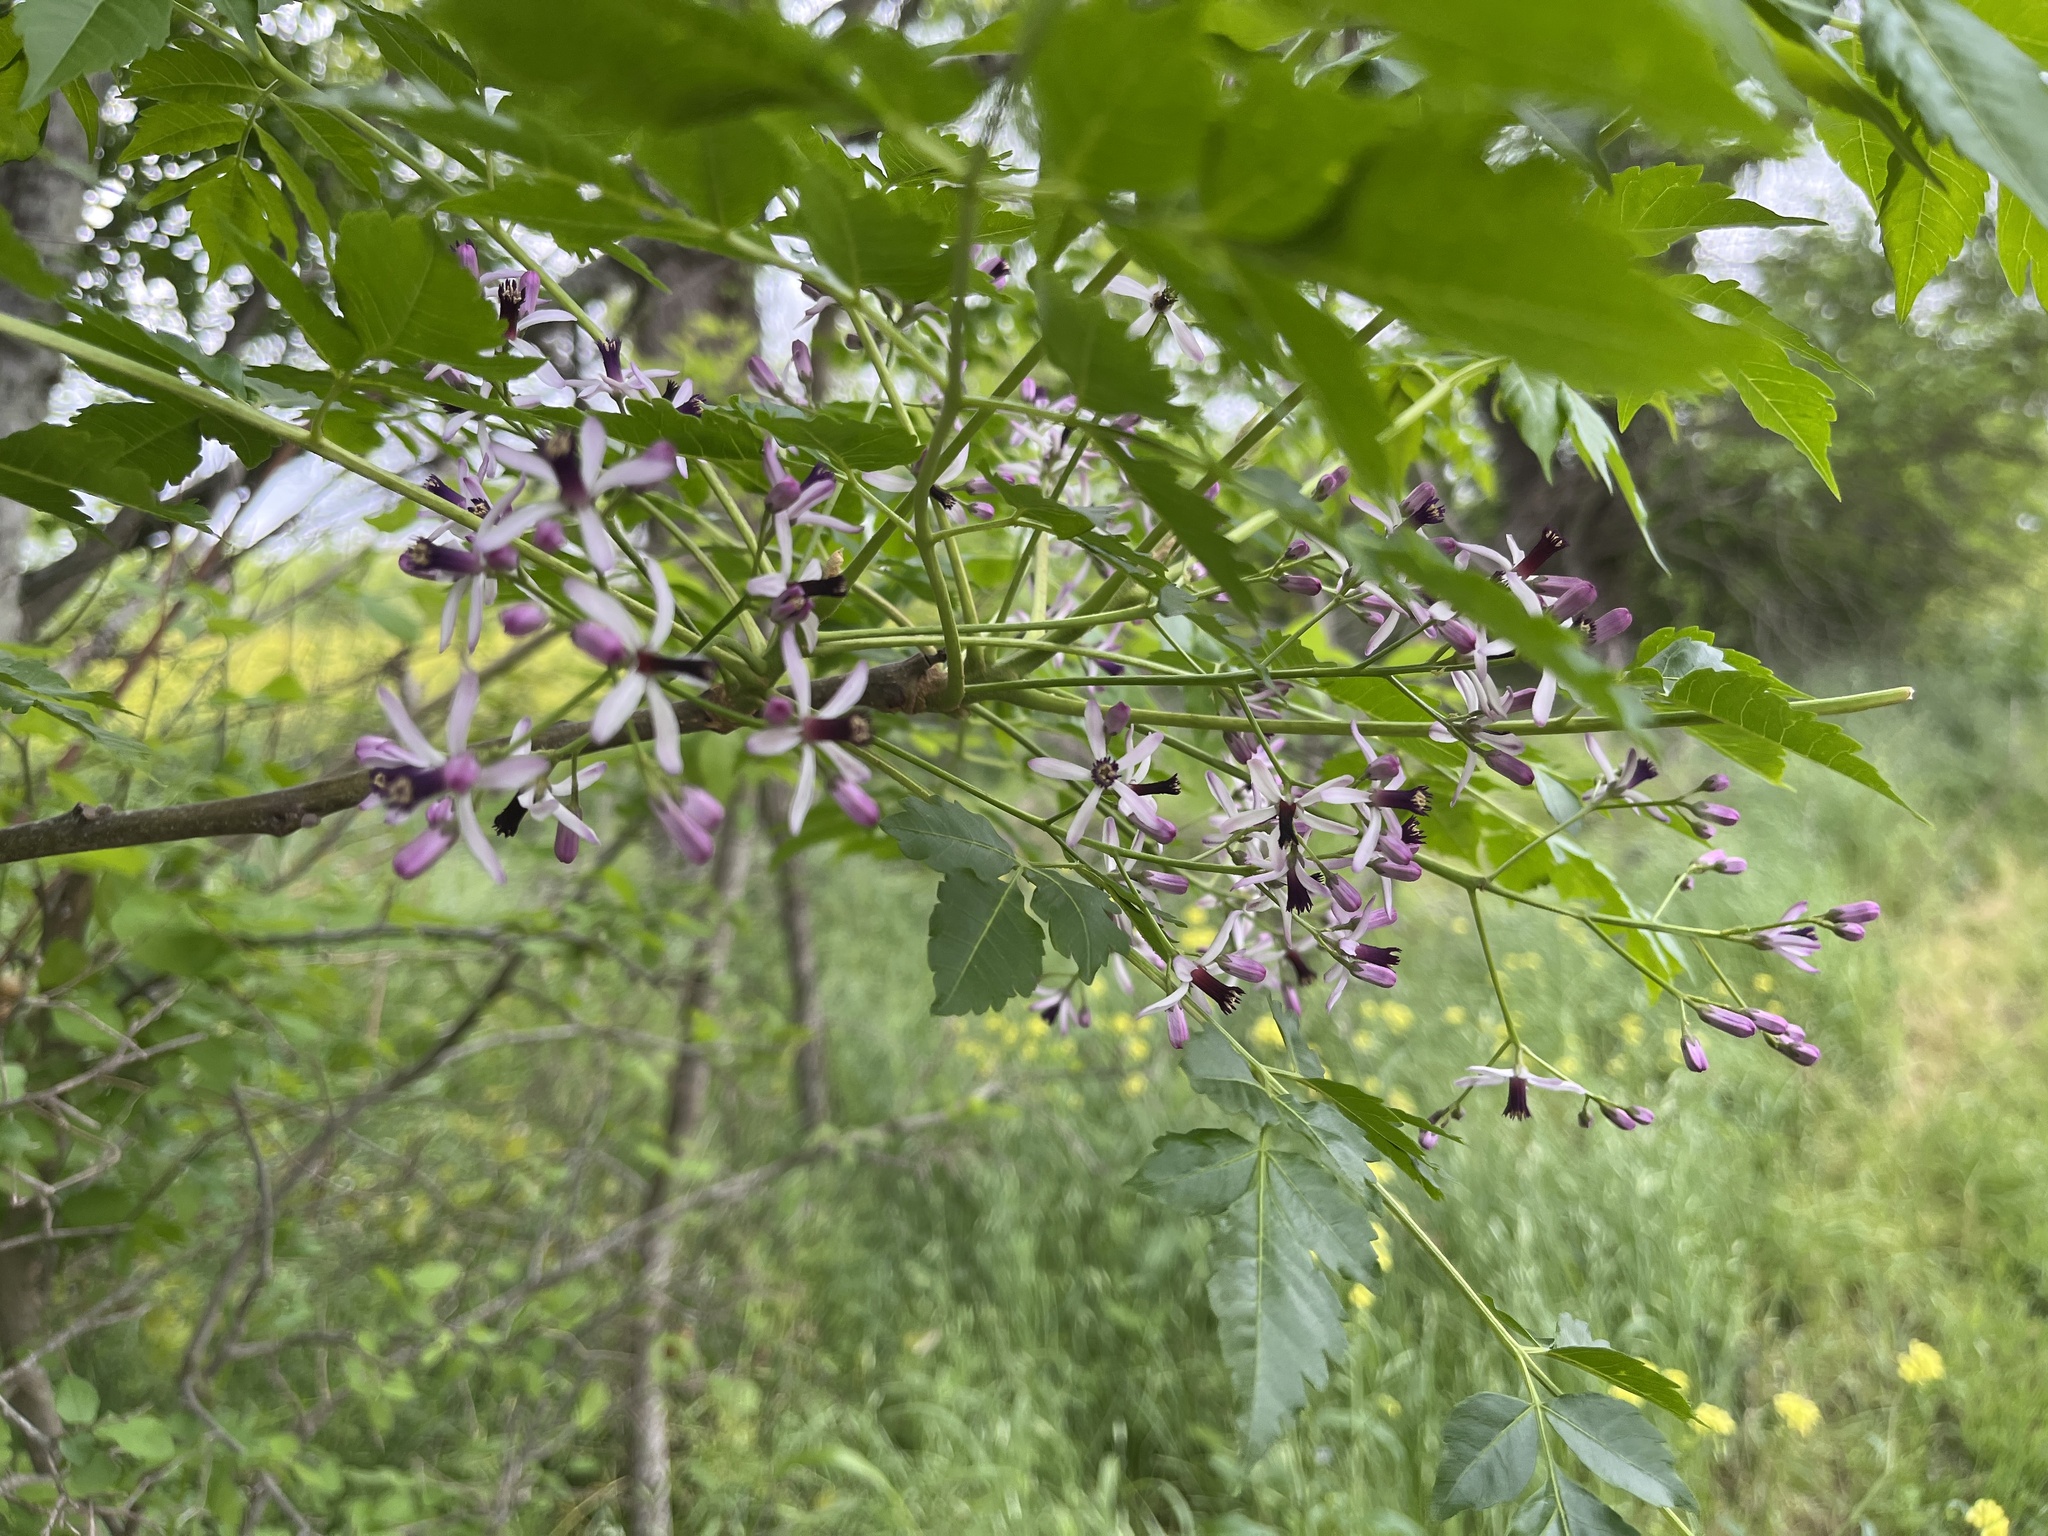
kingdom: Plantae
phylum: Tracheophyta
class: Magnoliopsida
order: Sapindales
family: Meliaceae
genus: Melia
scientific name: Melia azedarach
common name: Chinaberrytree
